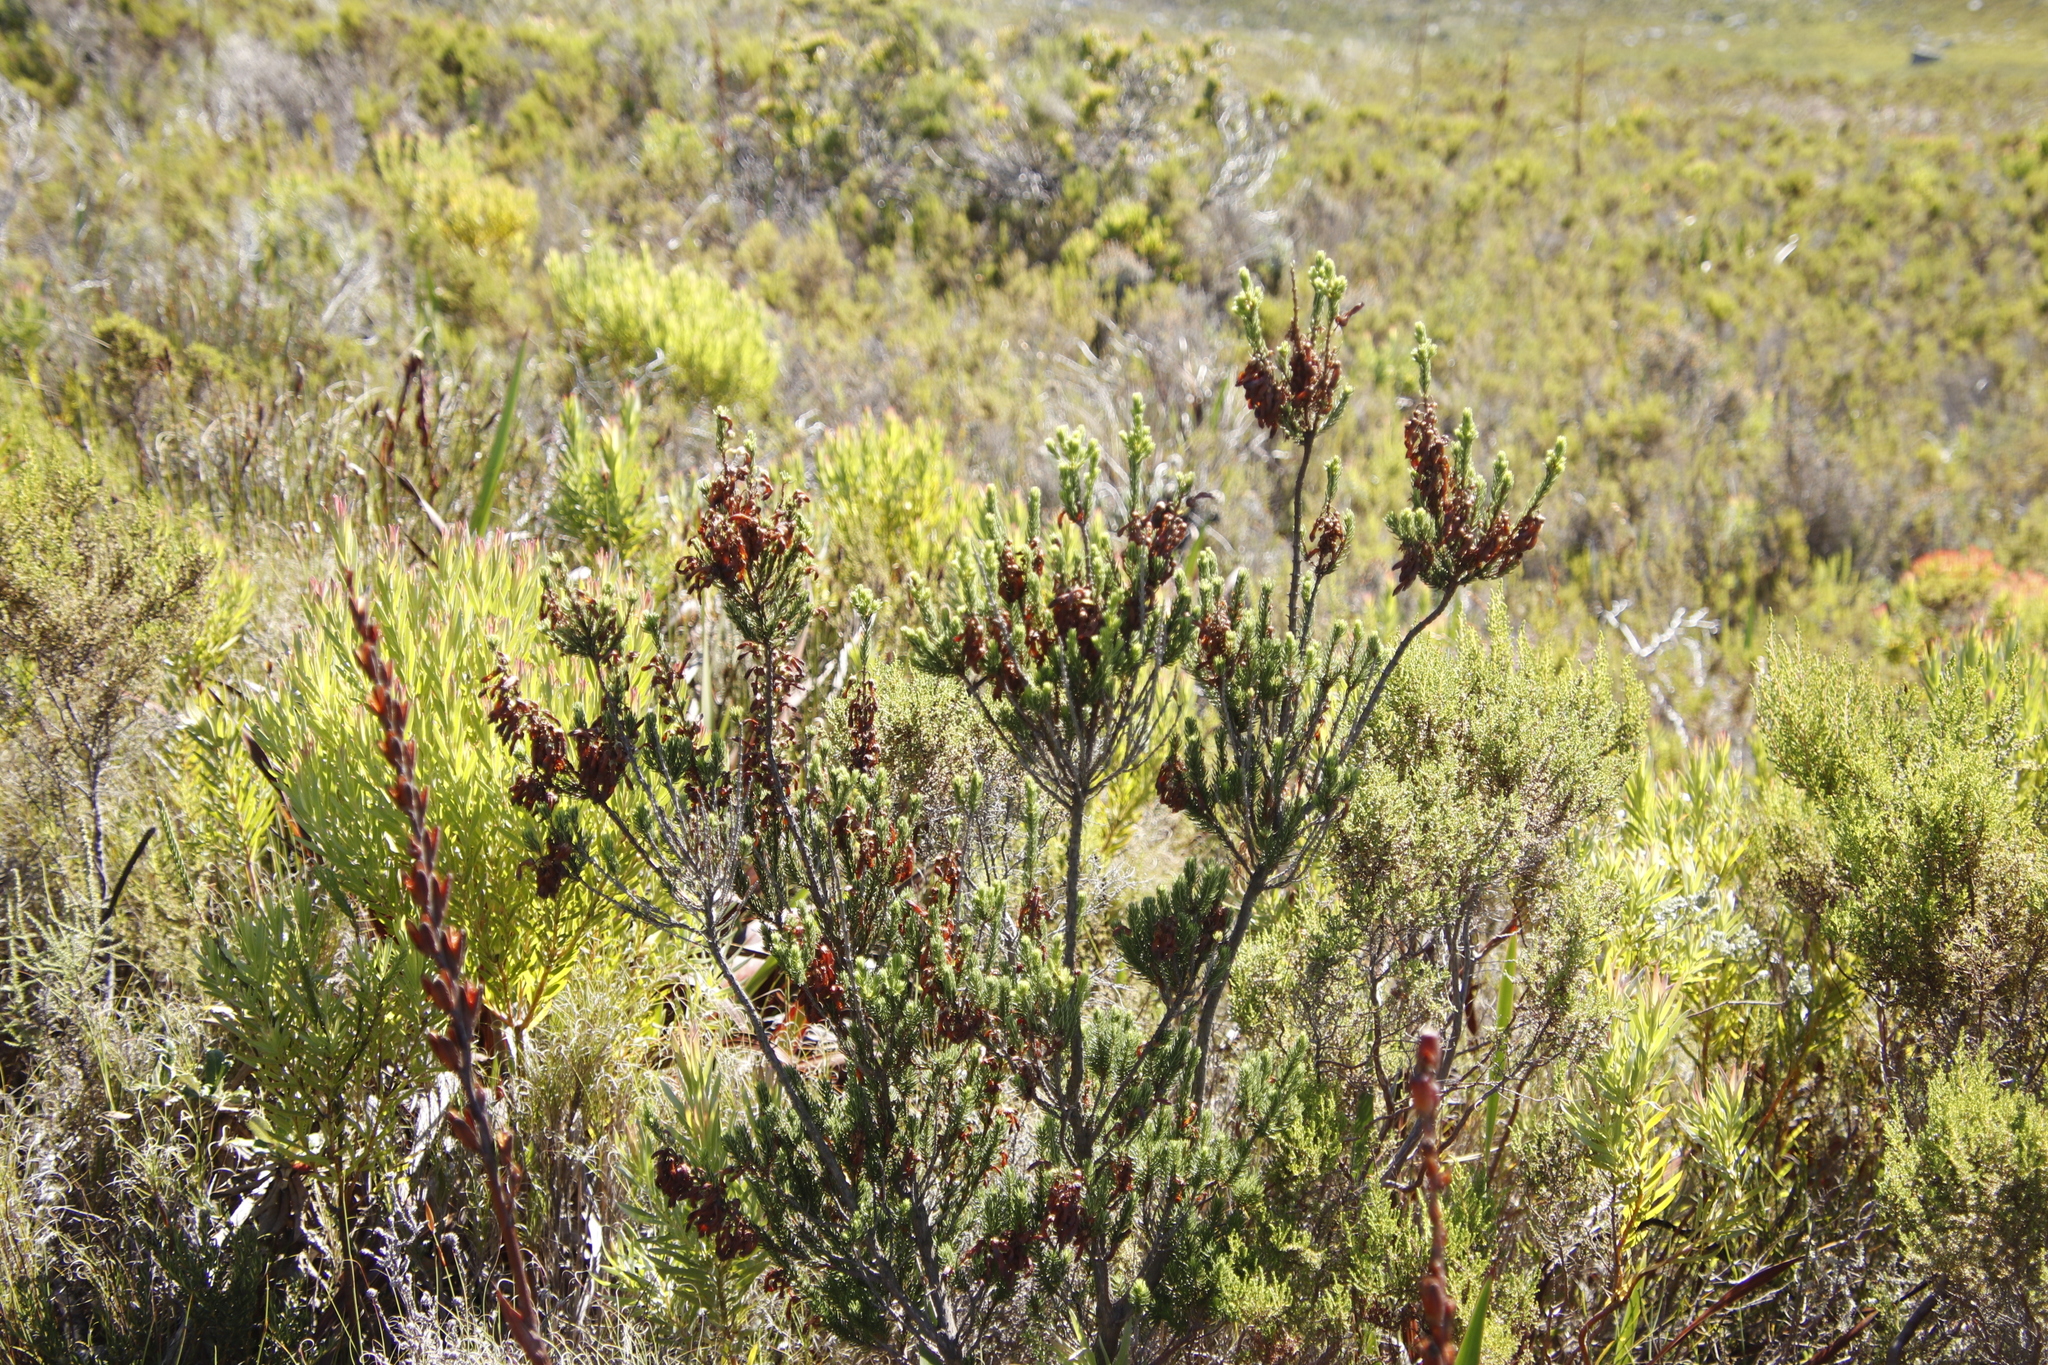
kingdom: Plantae
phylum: Tracheophyta
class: Magnoliopsida
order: Ericales
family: Ericaceae
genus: Erica
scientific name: Erica mammosa
